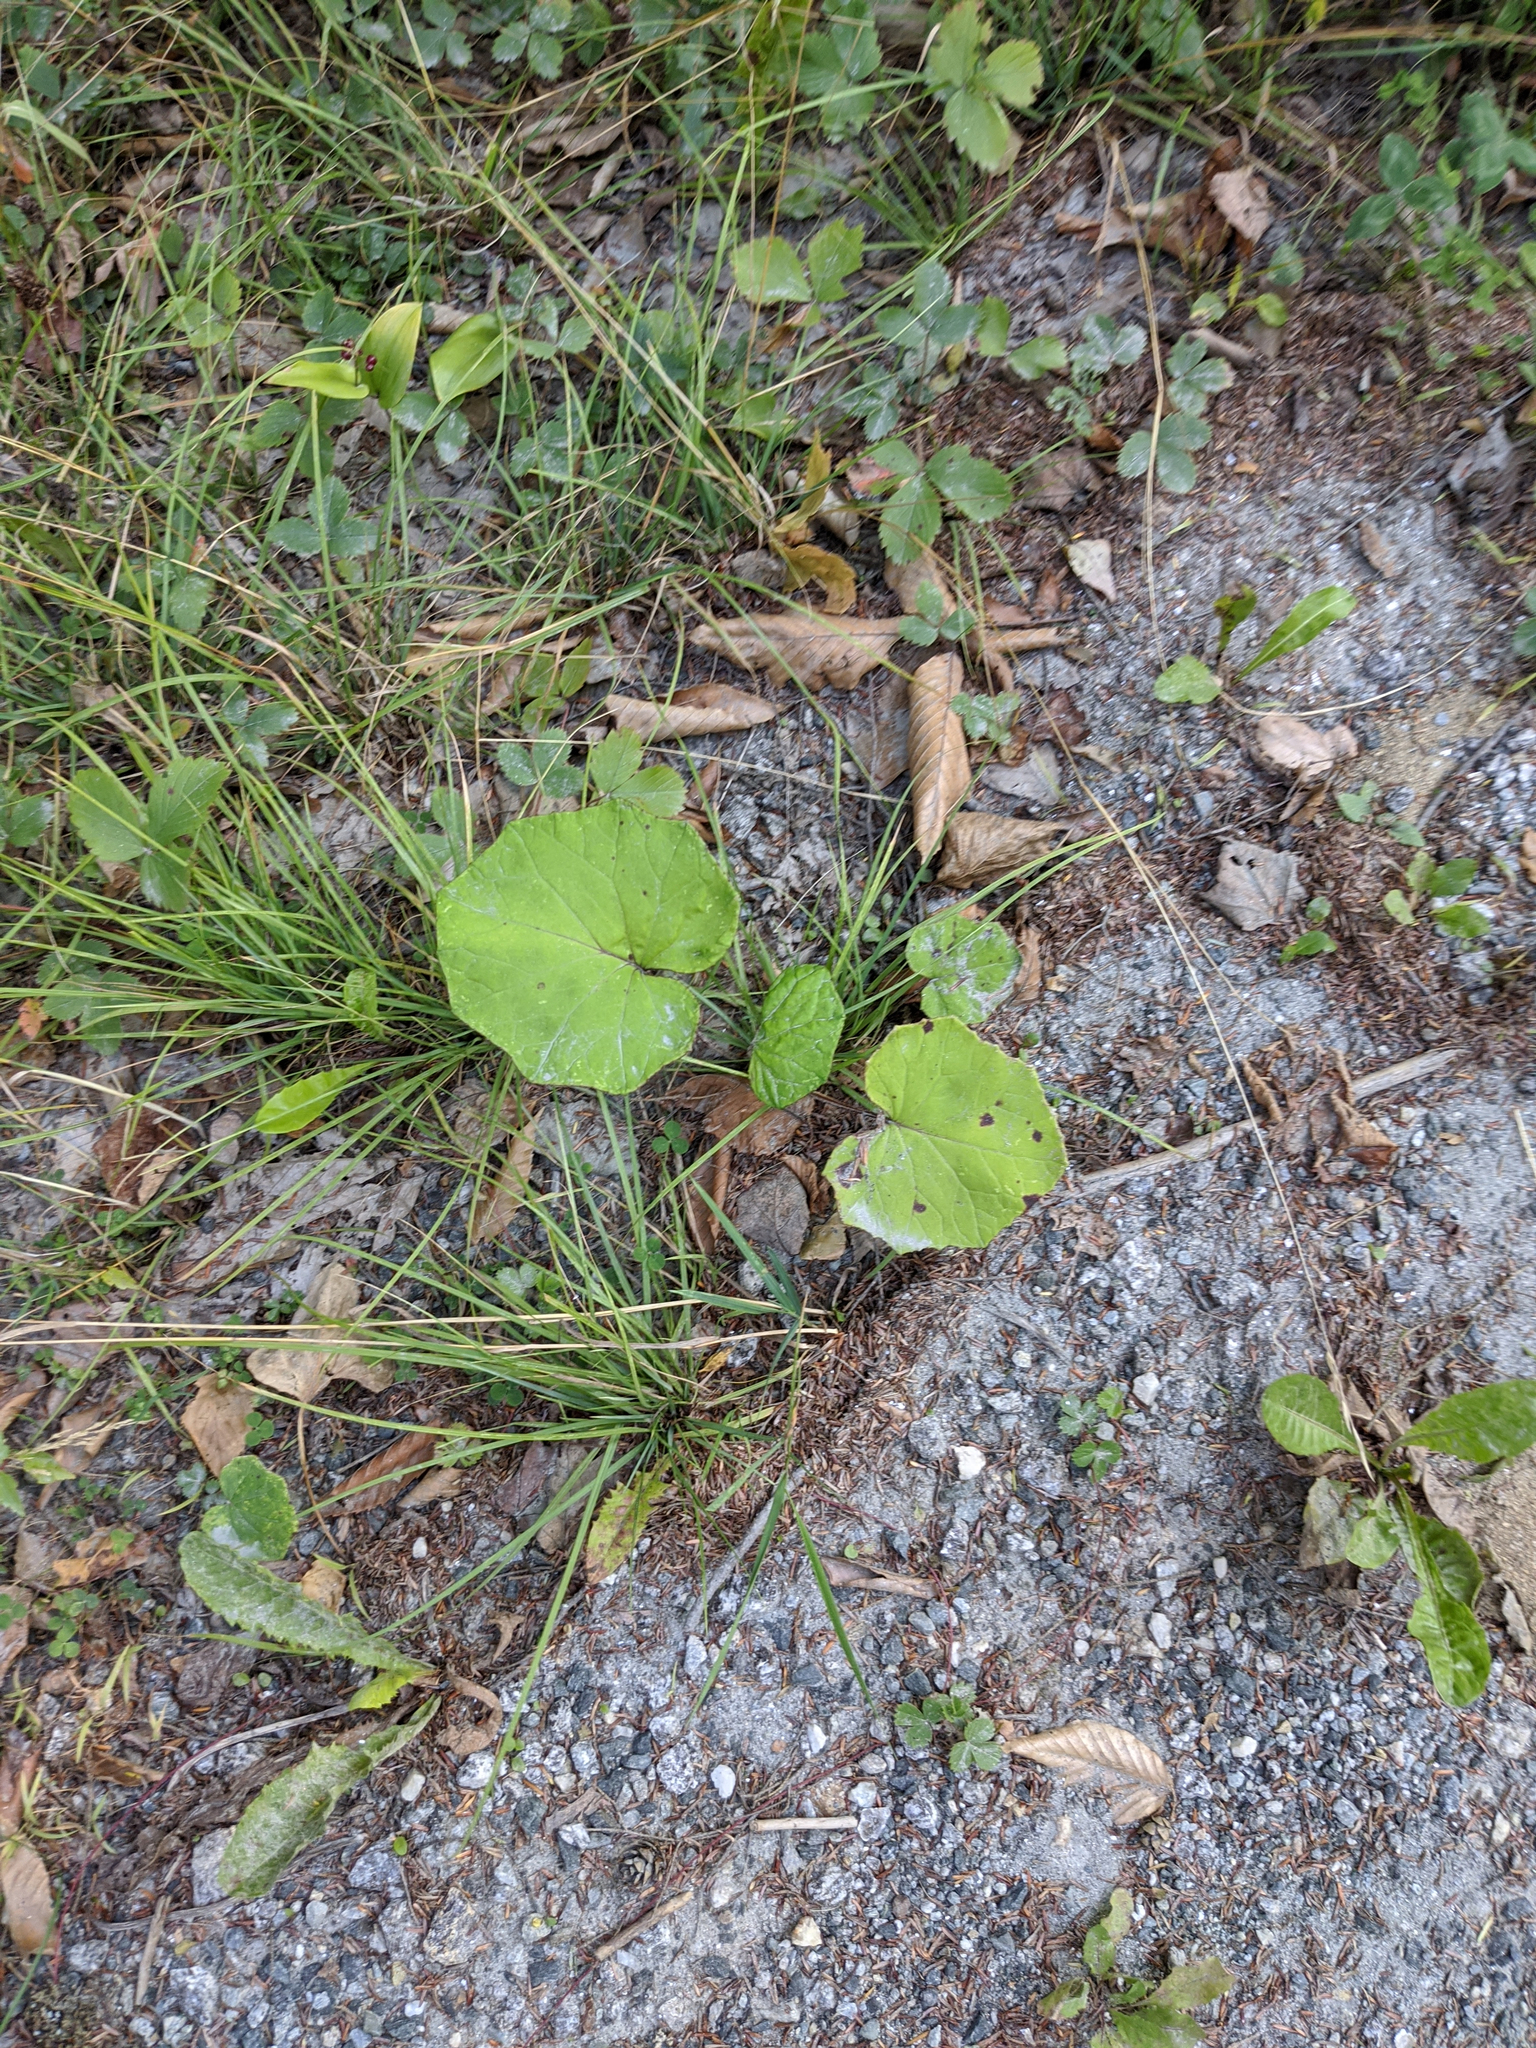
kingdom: Plantae
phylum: Tracheophyta
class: Magnoliopsida
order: Asterales
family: Asteraceae
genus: Tussilago
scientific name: Tussilago farfara
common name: Coltsfoot
